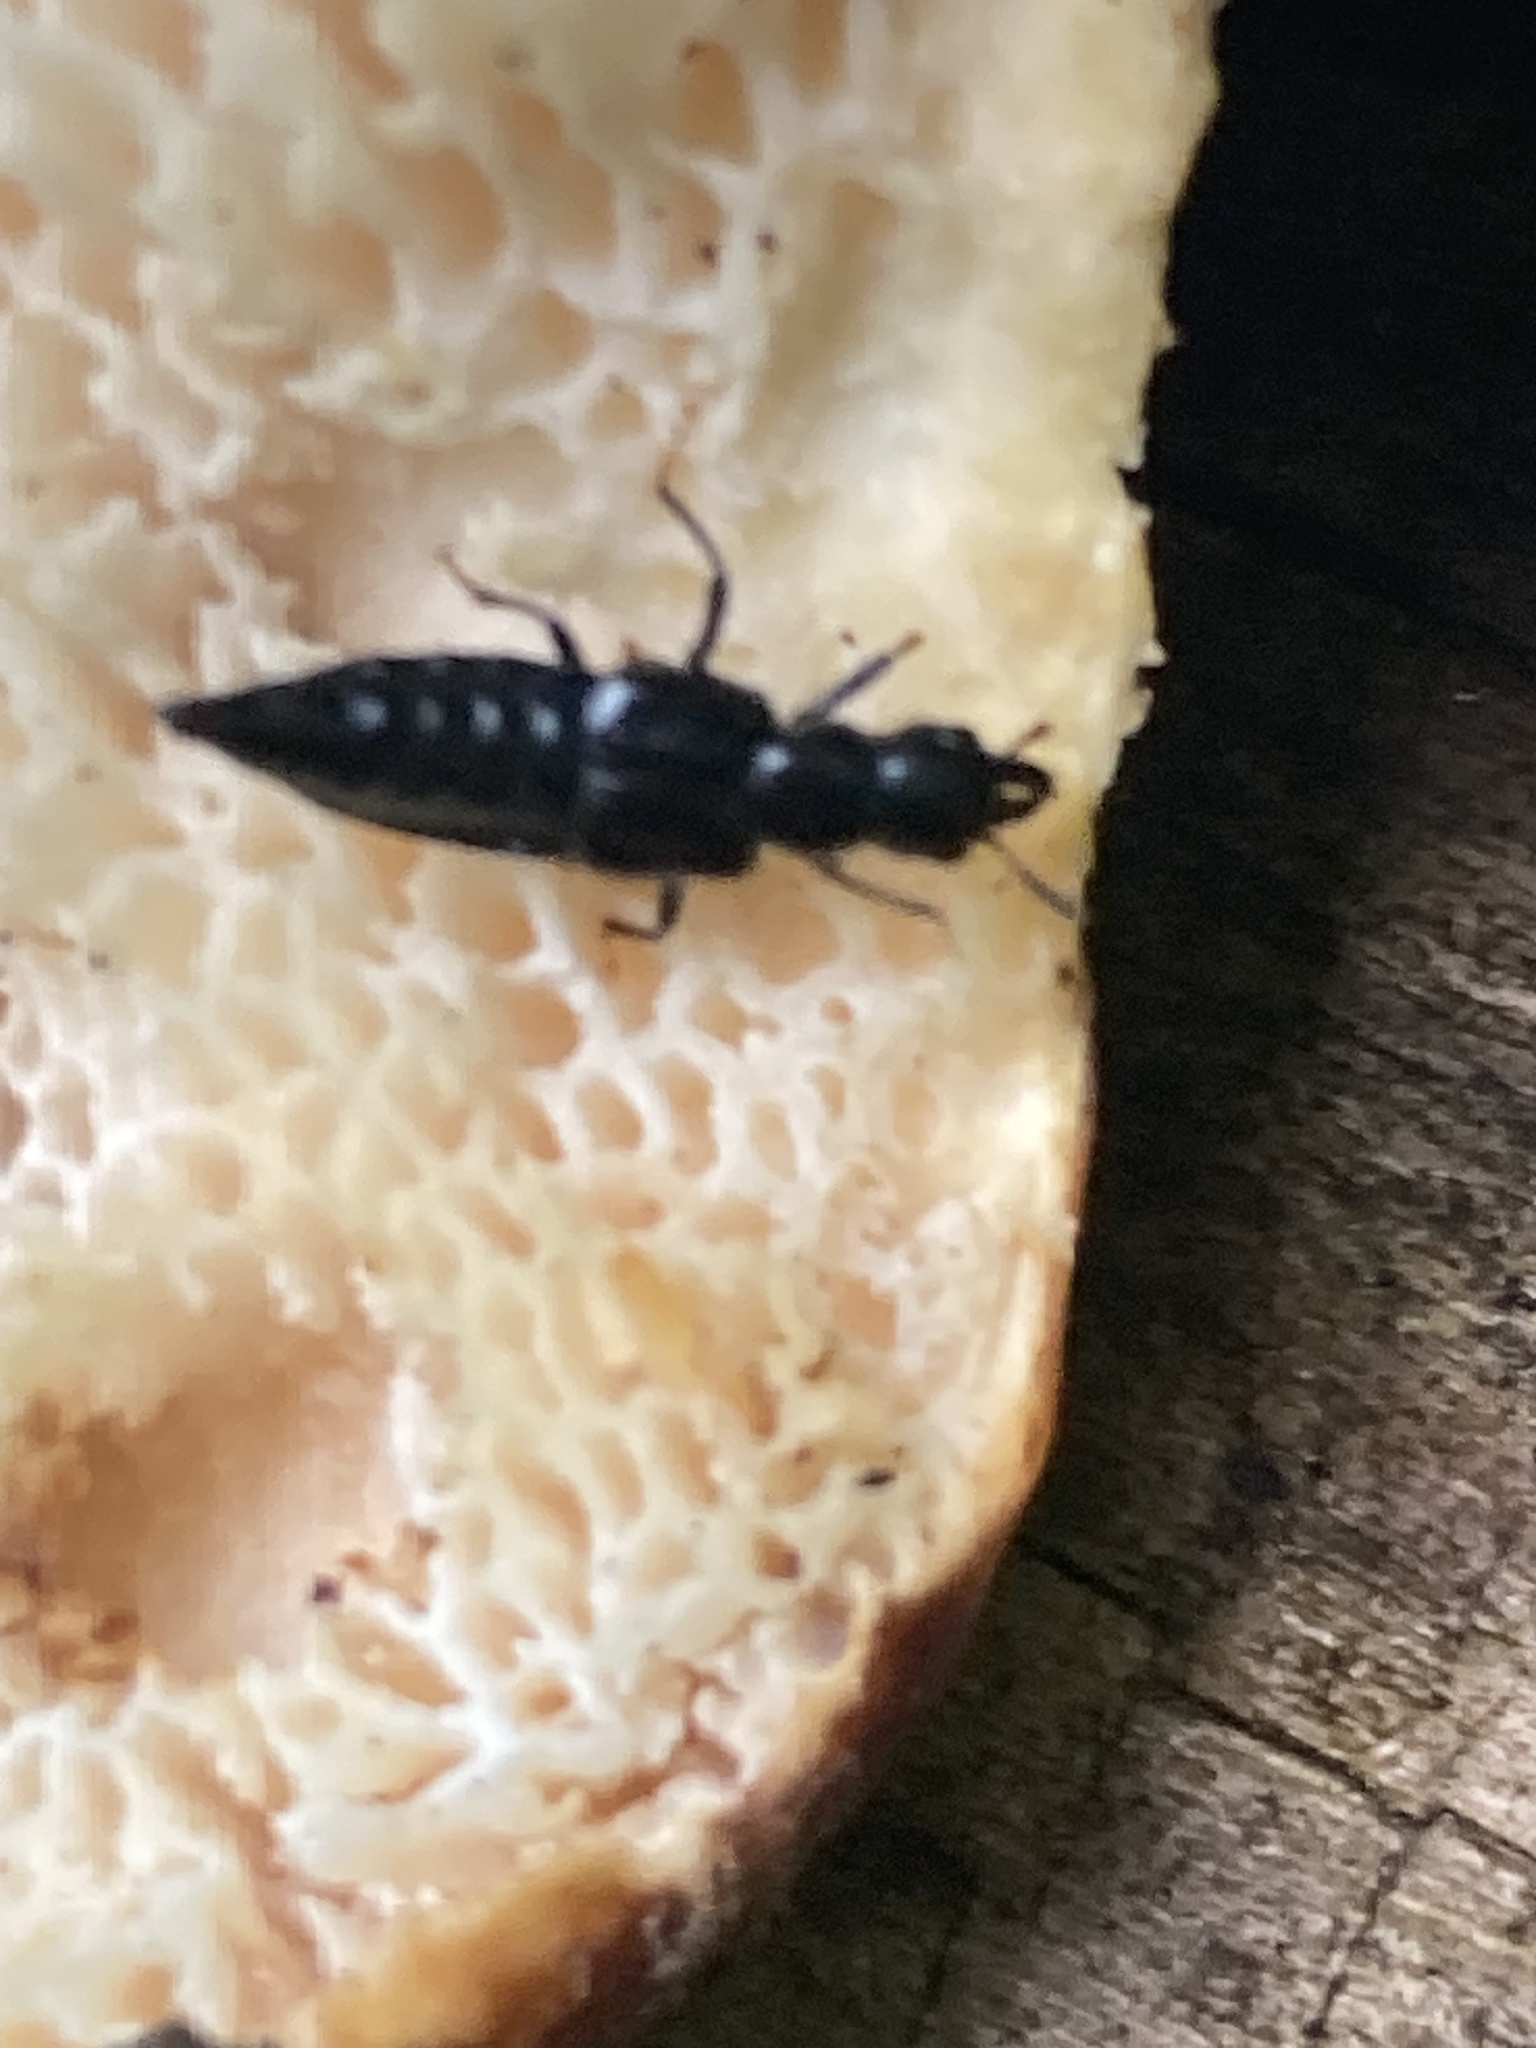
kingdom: Animalia
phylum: Arthropoda
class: Insecta
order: Coleoptera
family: Staphylinidae
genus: Oxyporus
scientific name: Oxyporus stygicus
